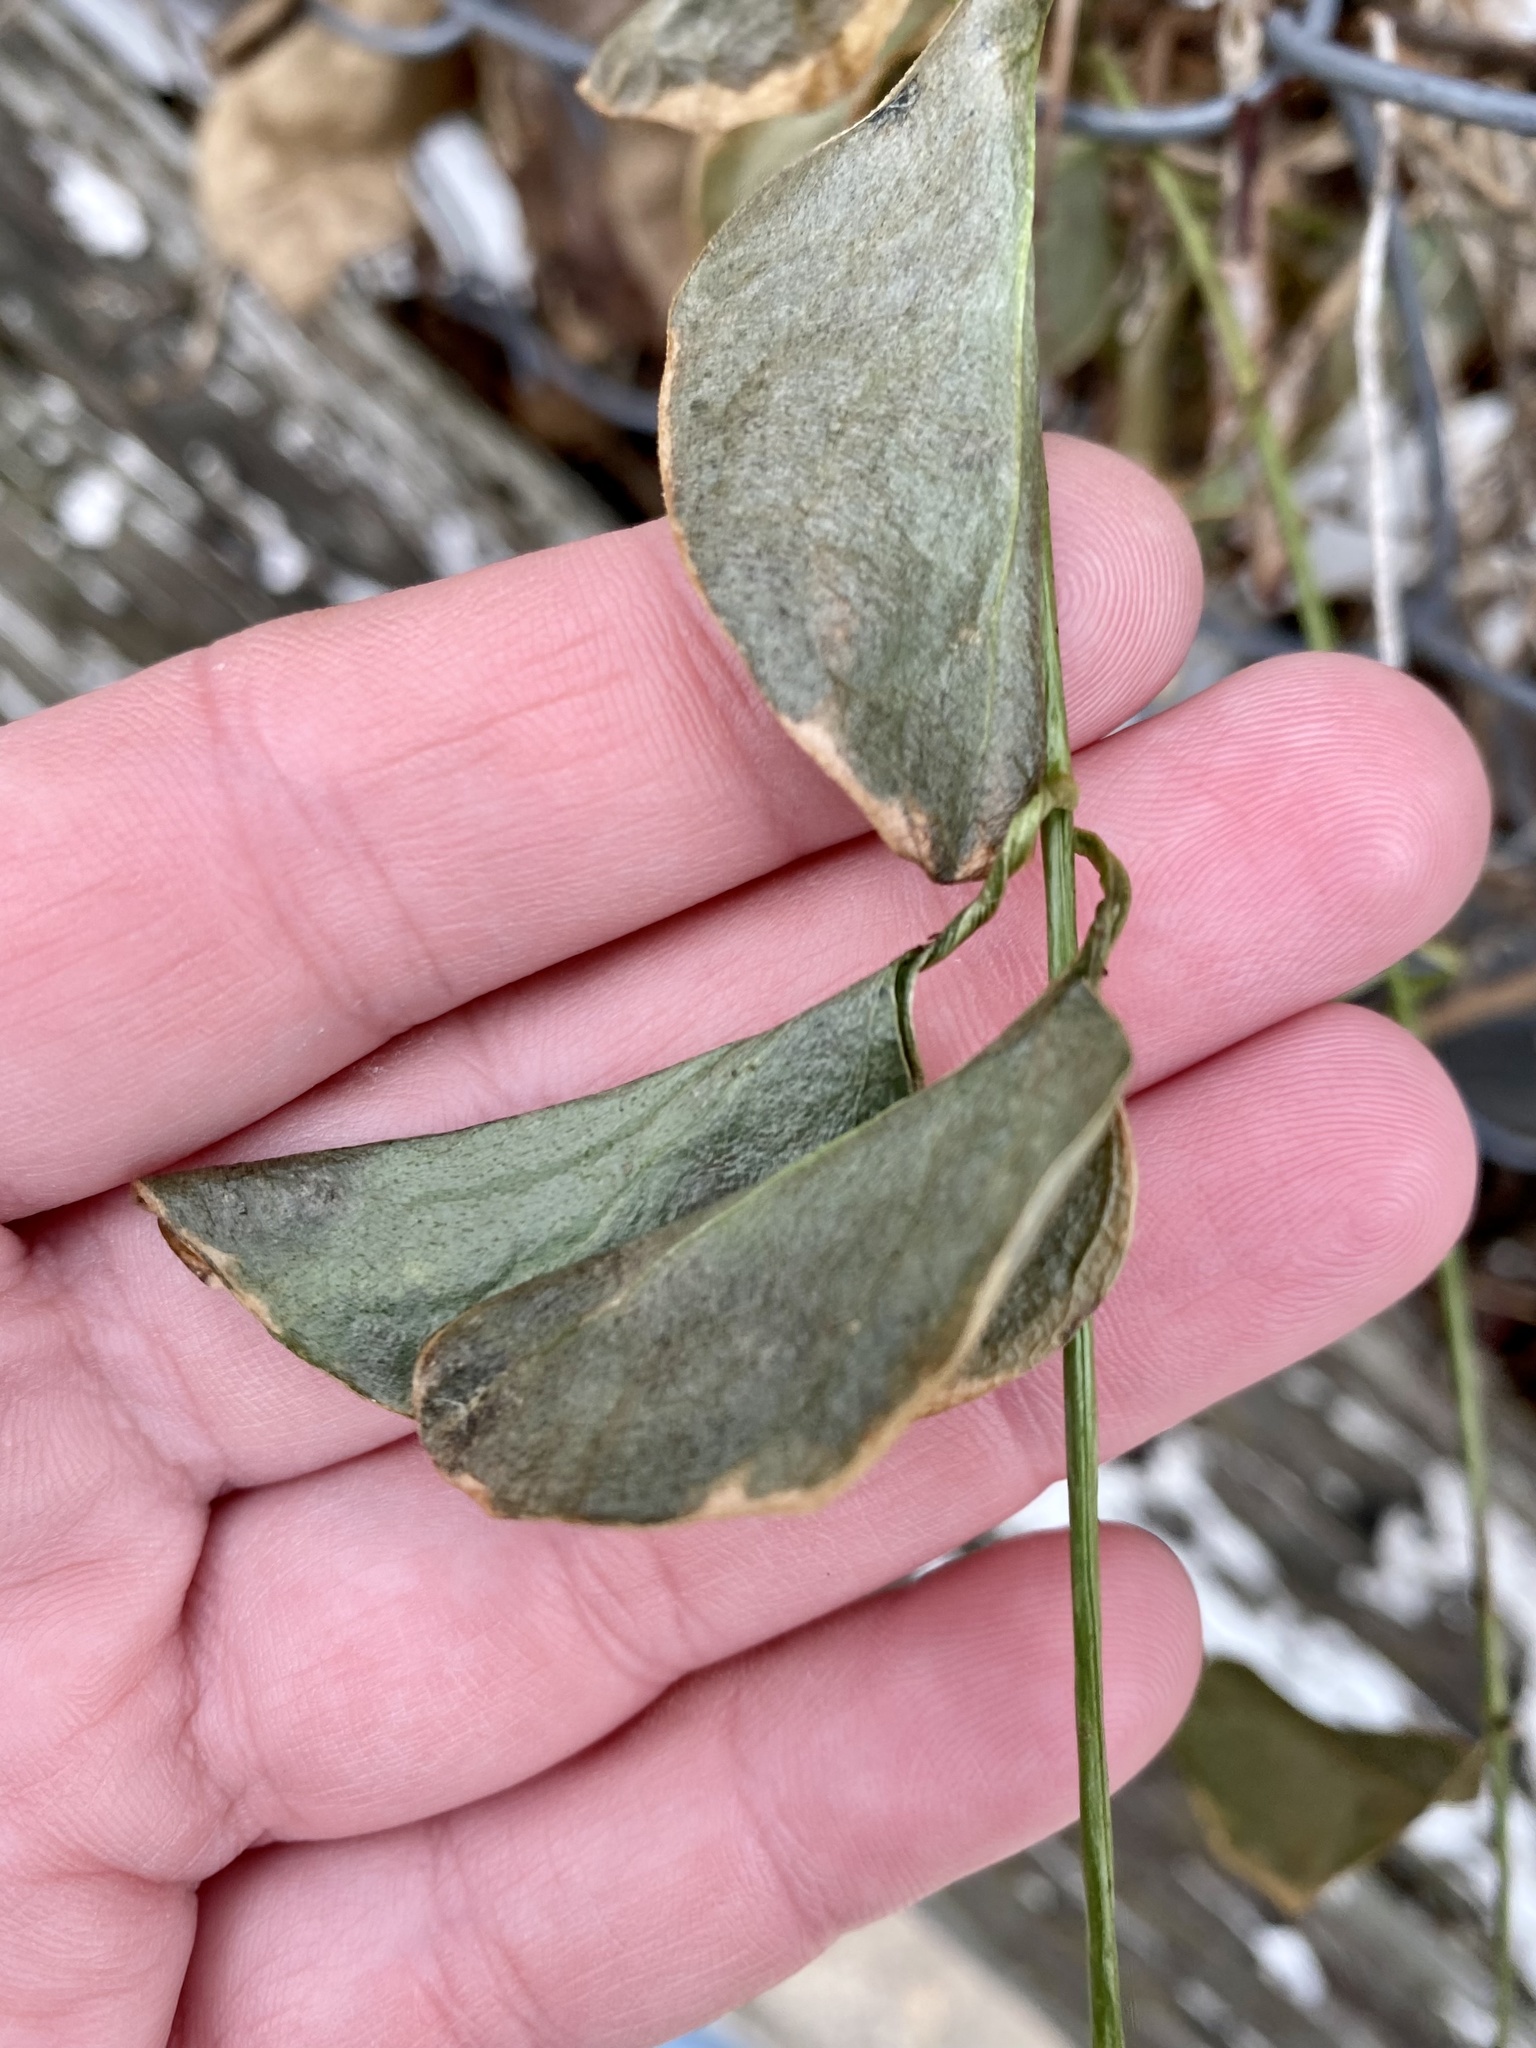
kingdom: Plantae
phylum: Tracheophyta
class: Magnoliopsida
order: Gentianales
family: Apocynaceae
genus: Vinca
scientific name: Vinca major
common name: Greater periwinkle
